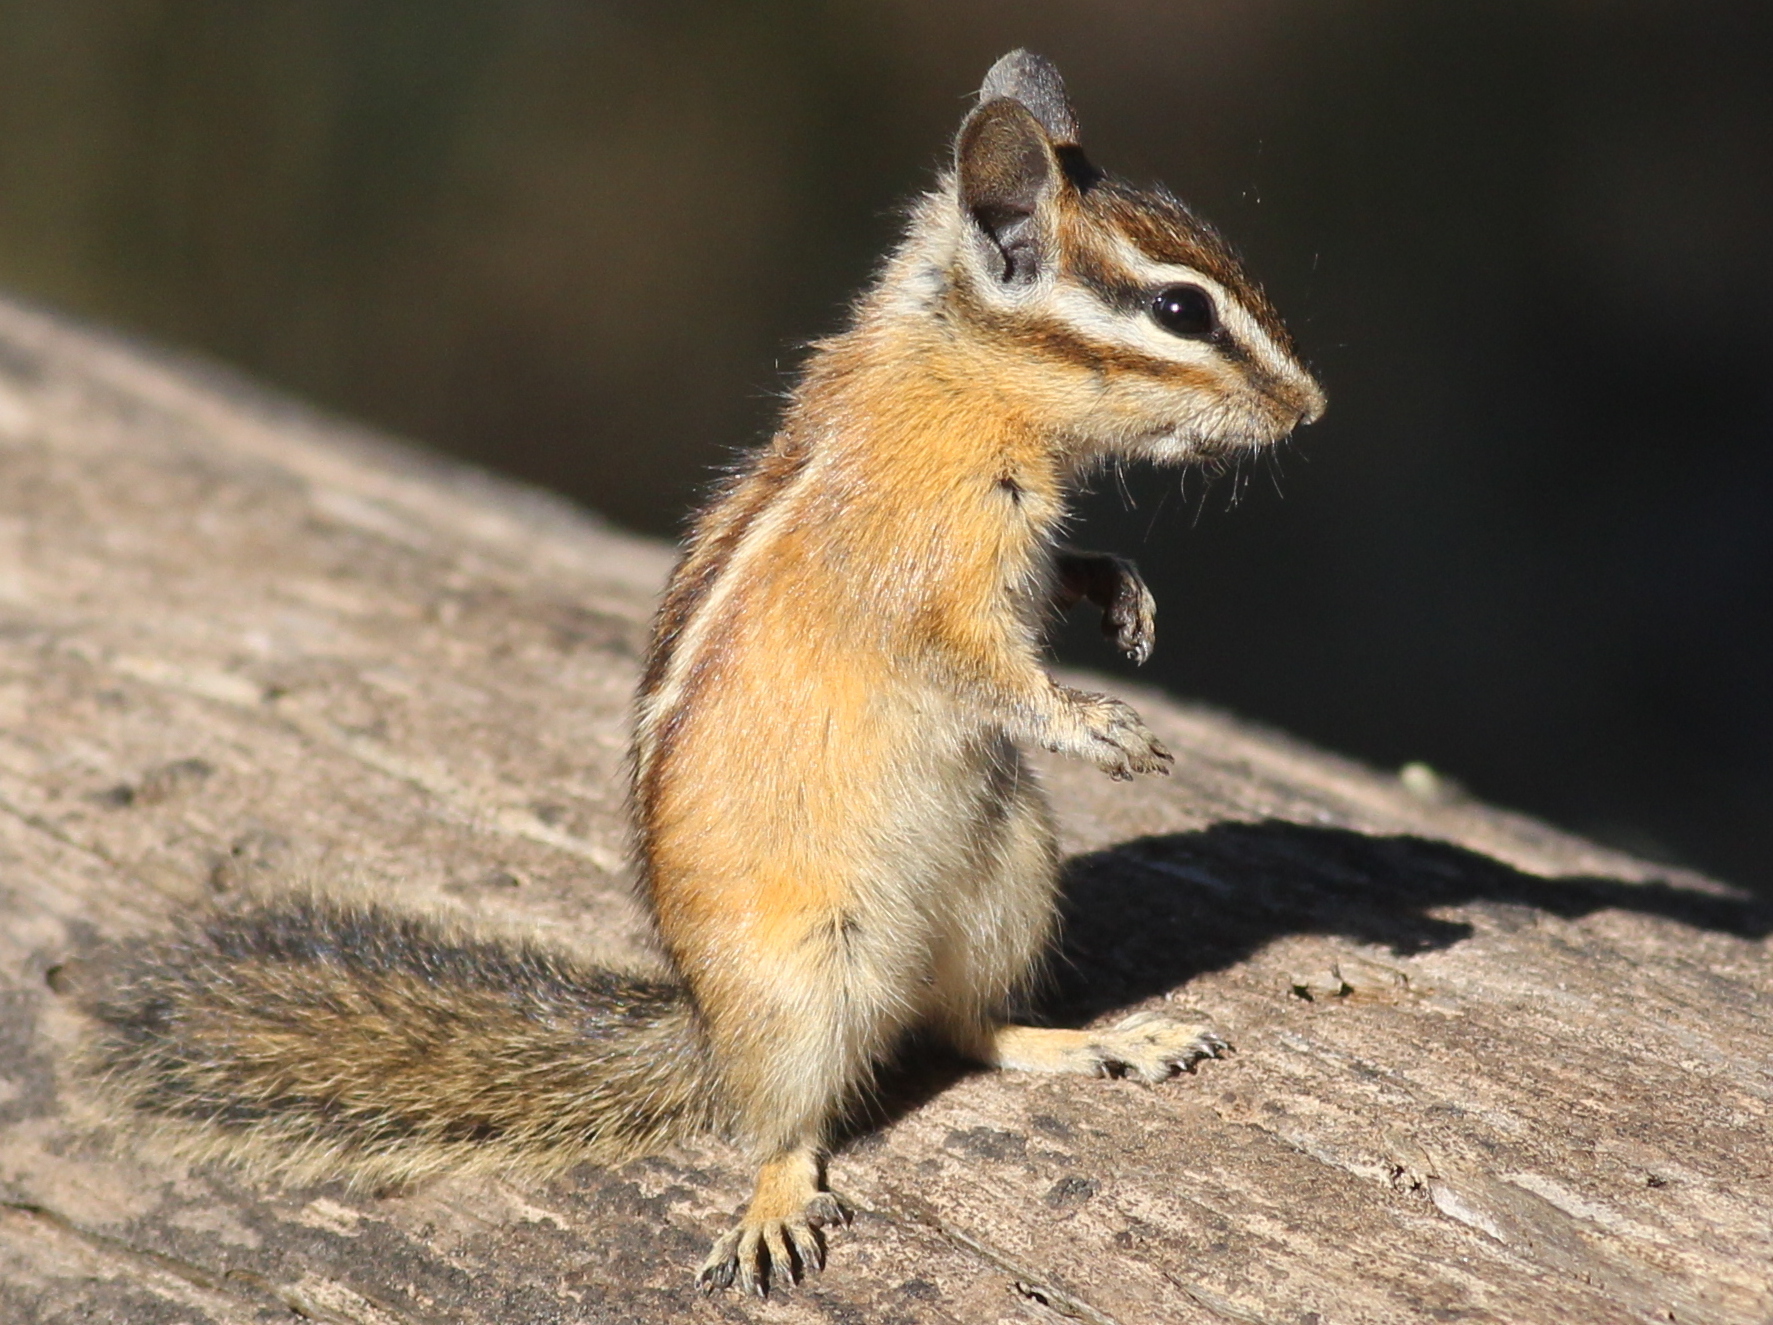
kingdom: Animalia
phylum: Chordata
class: Mammalia
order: Rodentia
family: Sciuridae
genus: Tamias
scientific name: Tamias amoenus
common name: Yellow-pine chipmunk
